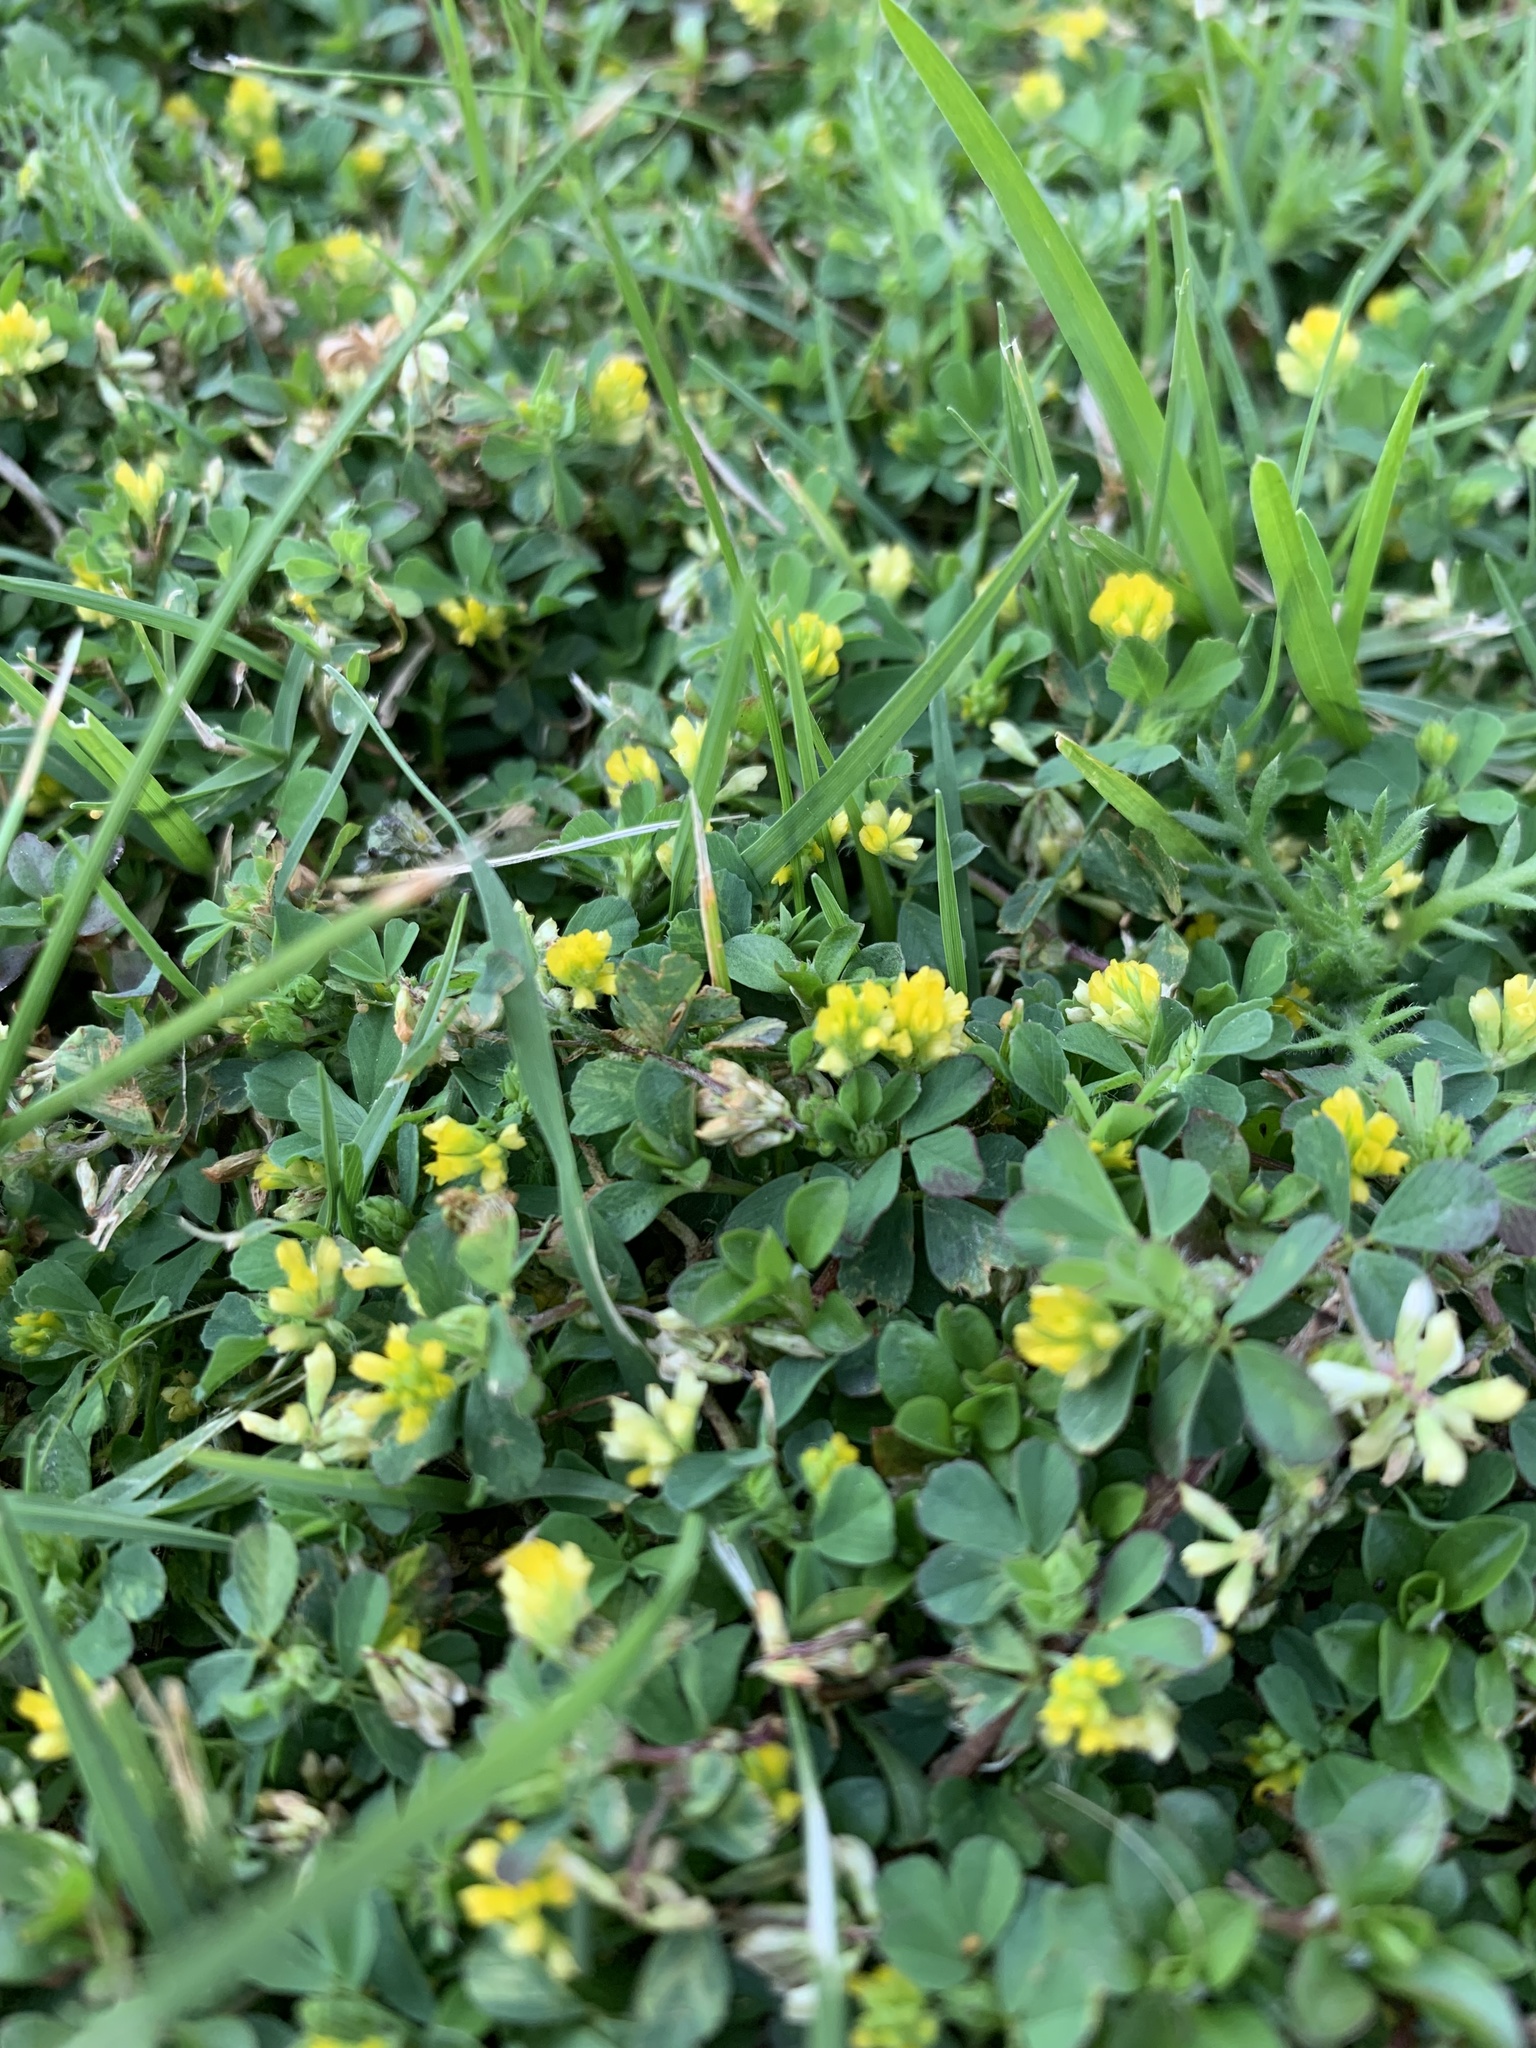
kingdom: Plantae
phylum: Tracheophyta
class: Magnoliopsida
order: Fabales
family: Fabaceae
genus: Trifolium
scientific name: Trifolium dubium
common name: Suckling clover
